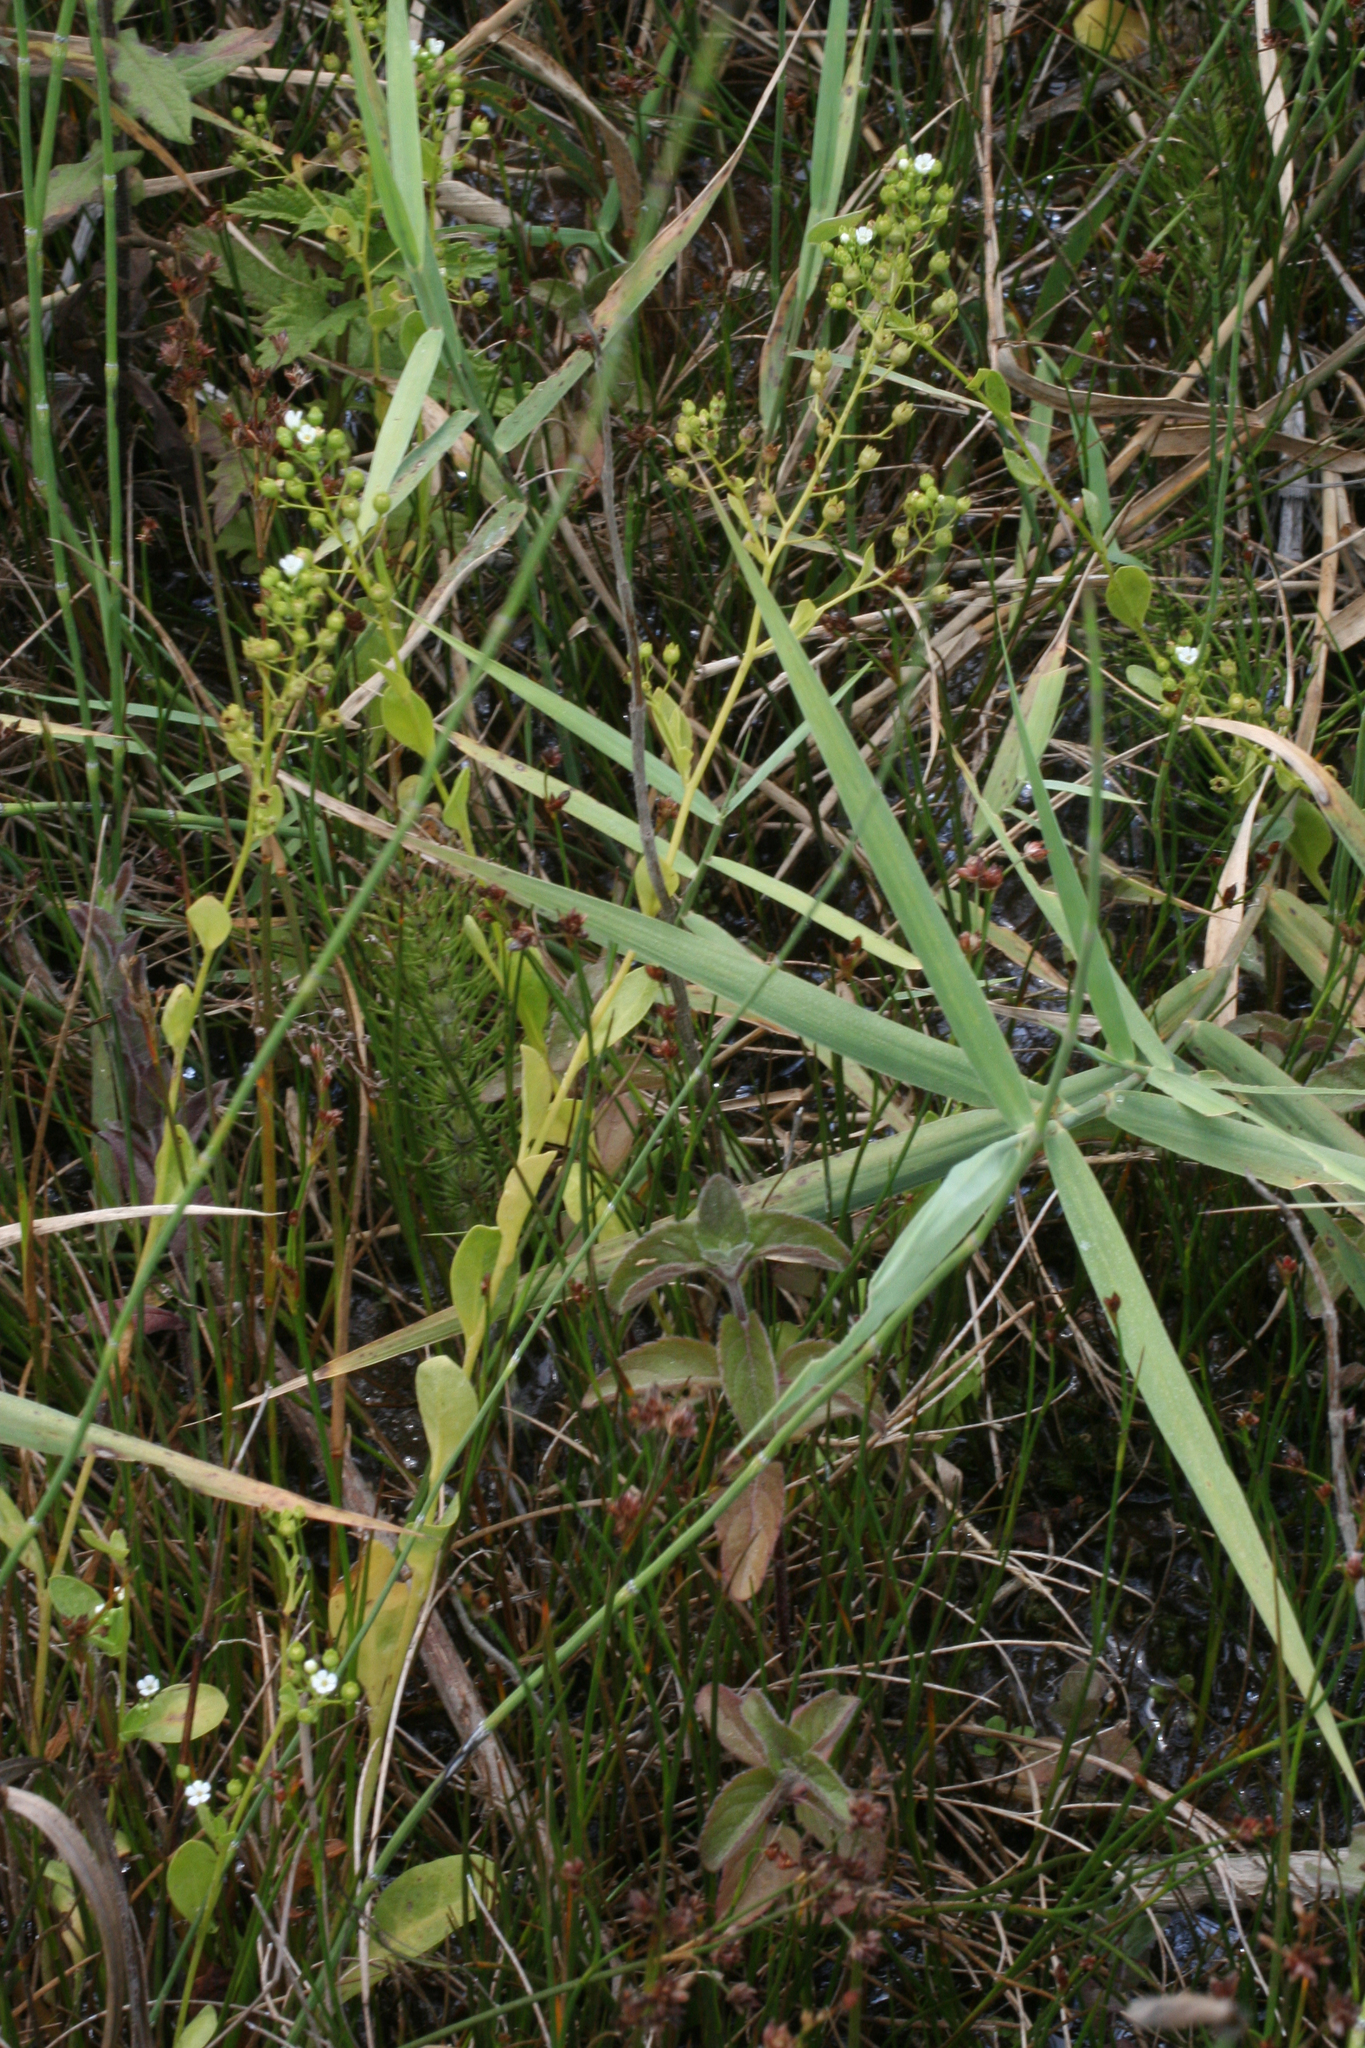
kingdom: Plantae
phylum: Tracheophyta
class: Magnoliopsida
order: Ericales
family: Primulaceae
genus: Samolus
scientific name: Samolus valerandi
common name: Brookweed
